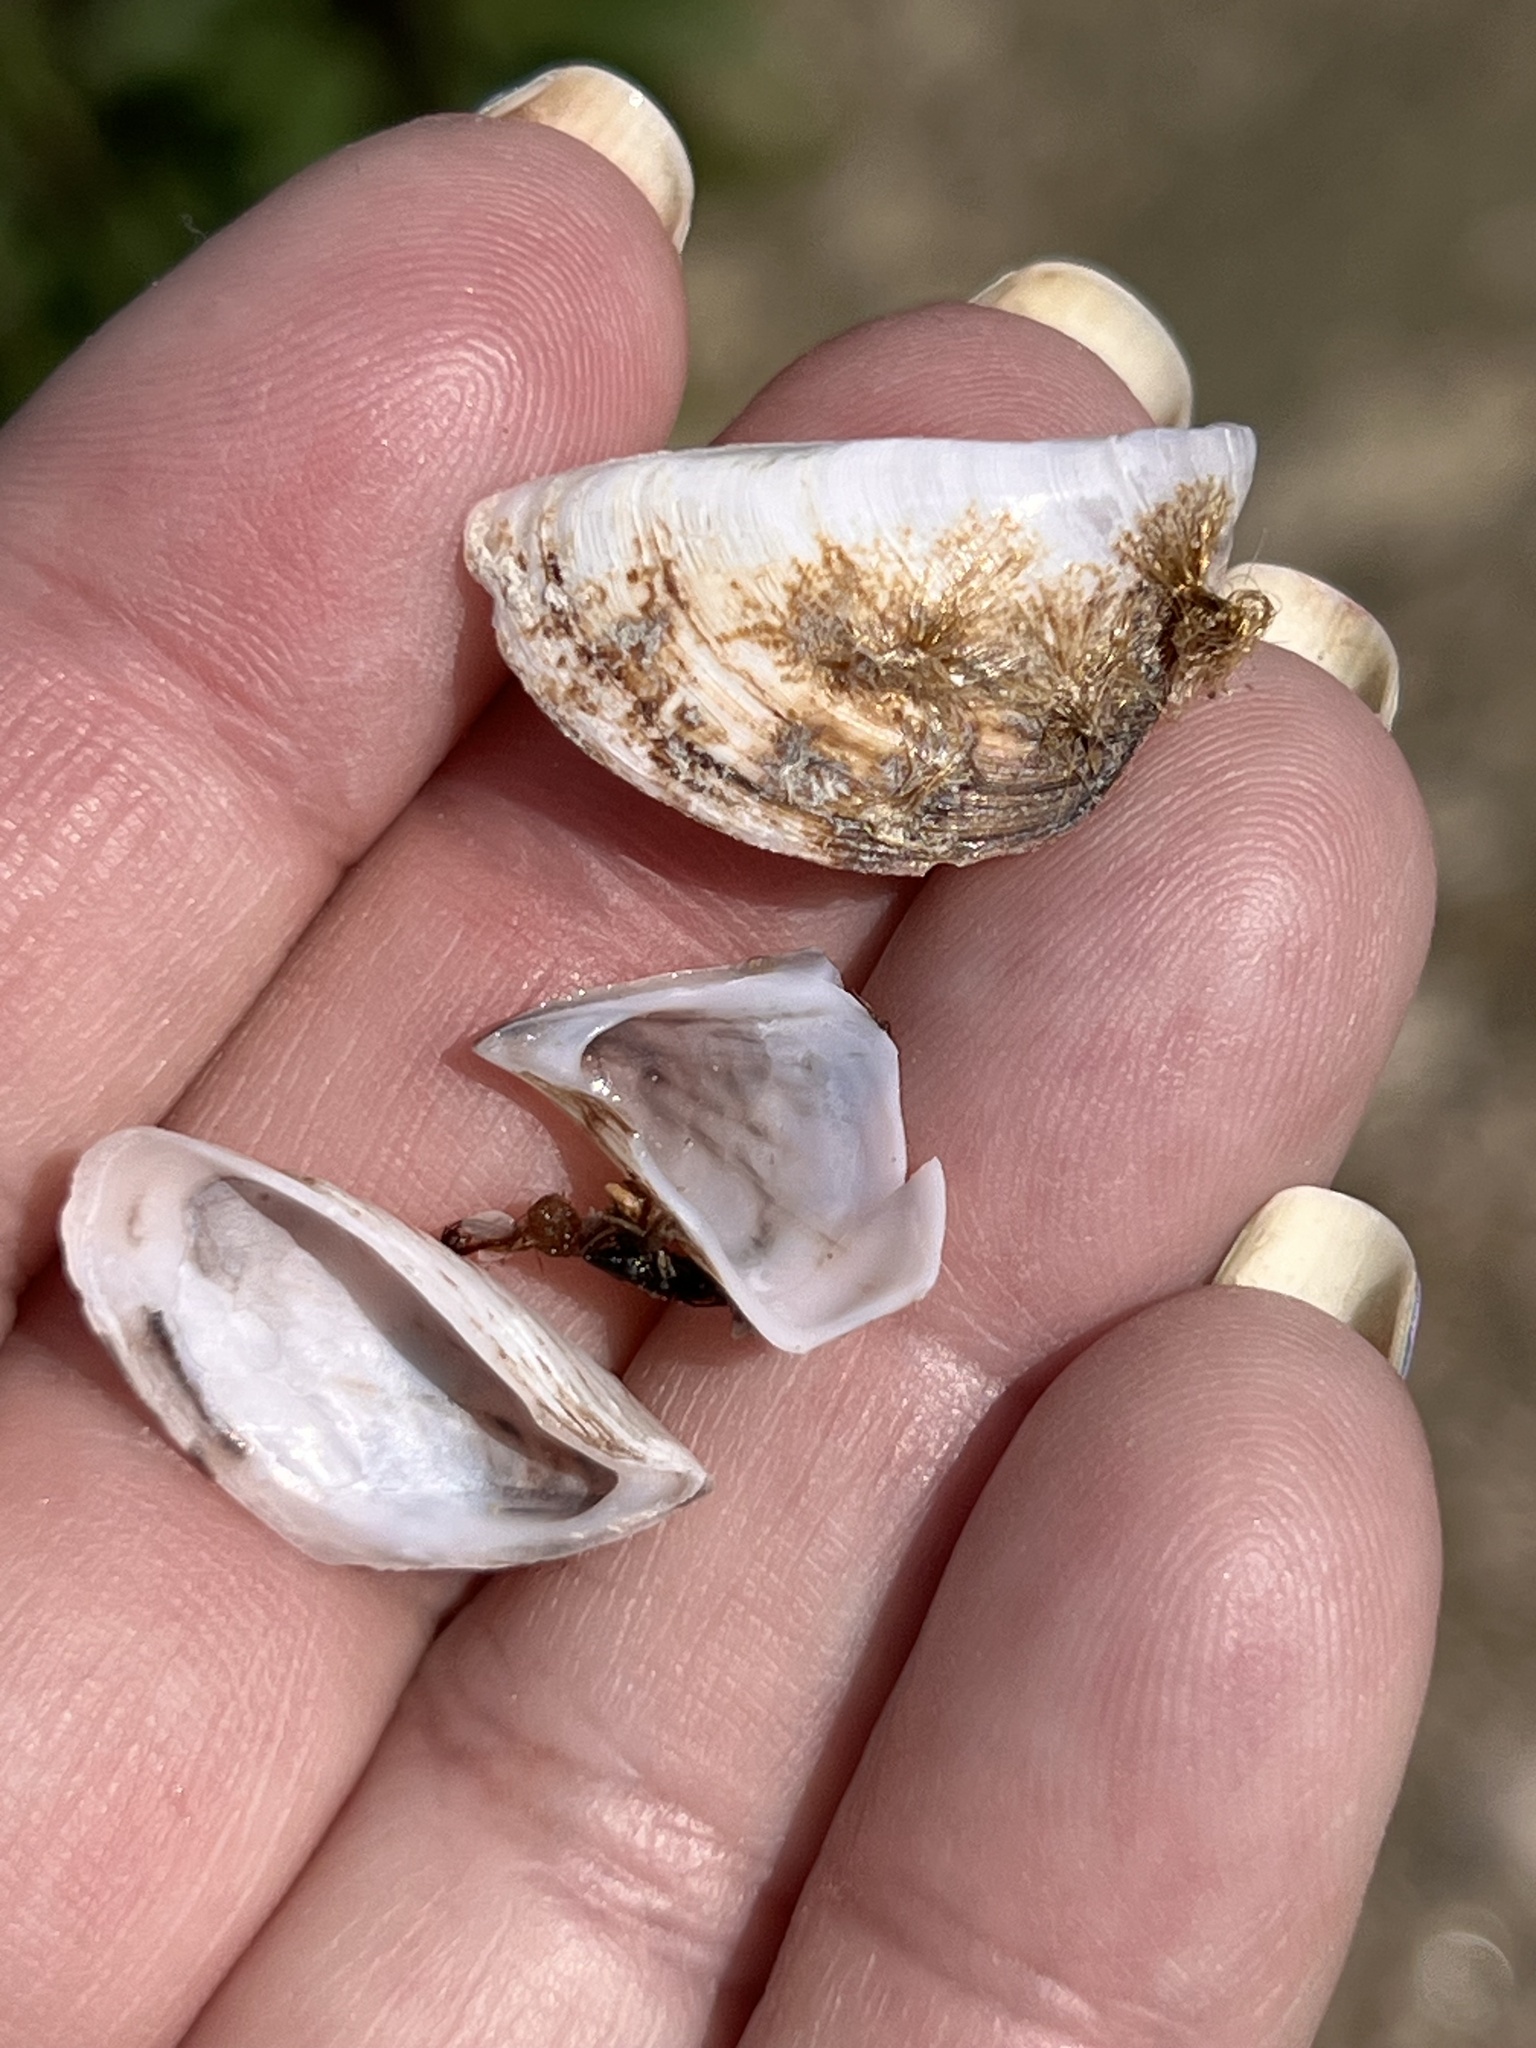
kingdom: Animalia
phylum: Mollusca
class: Bivalvia
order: Myida
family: Dreissenidae
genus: Dreissena
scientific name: Dreissena polymorpha
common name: Zebra mussel
